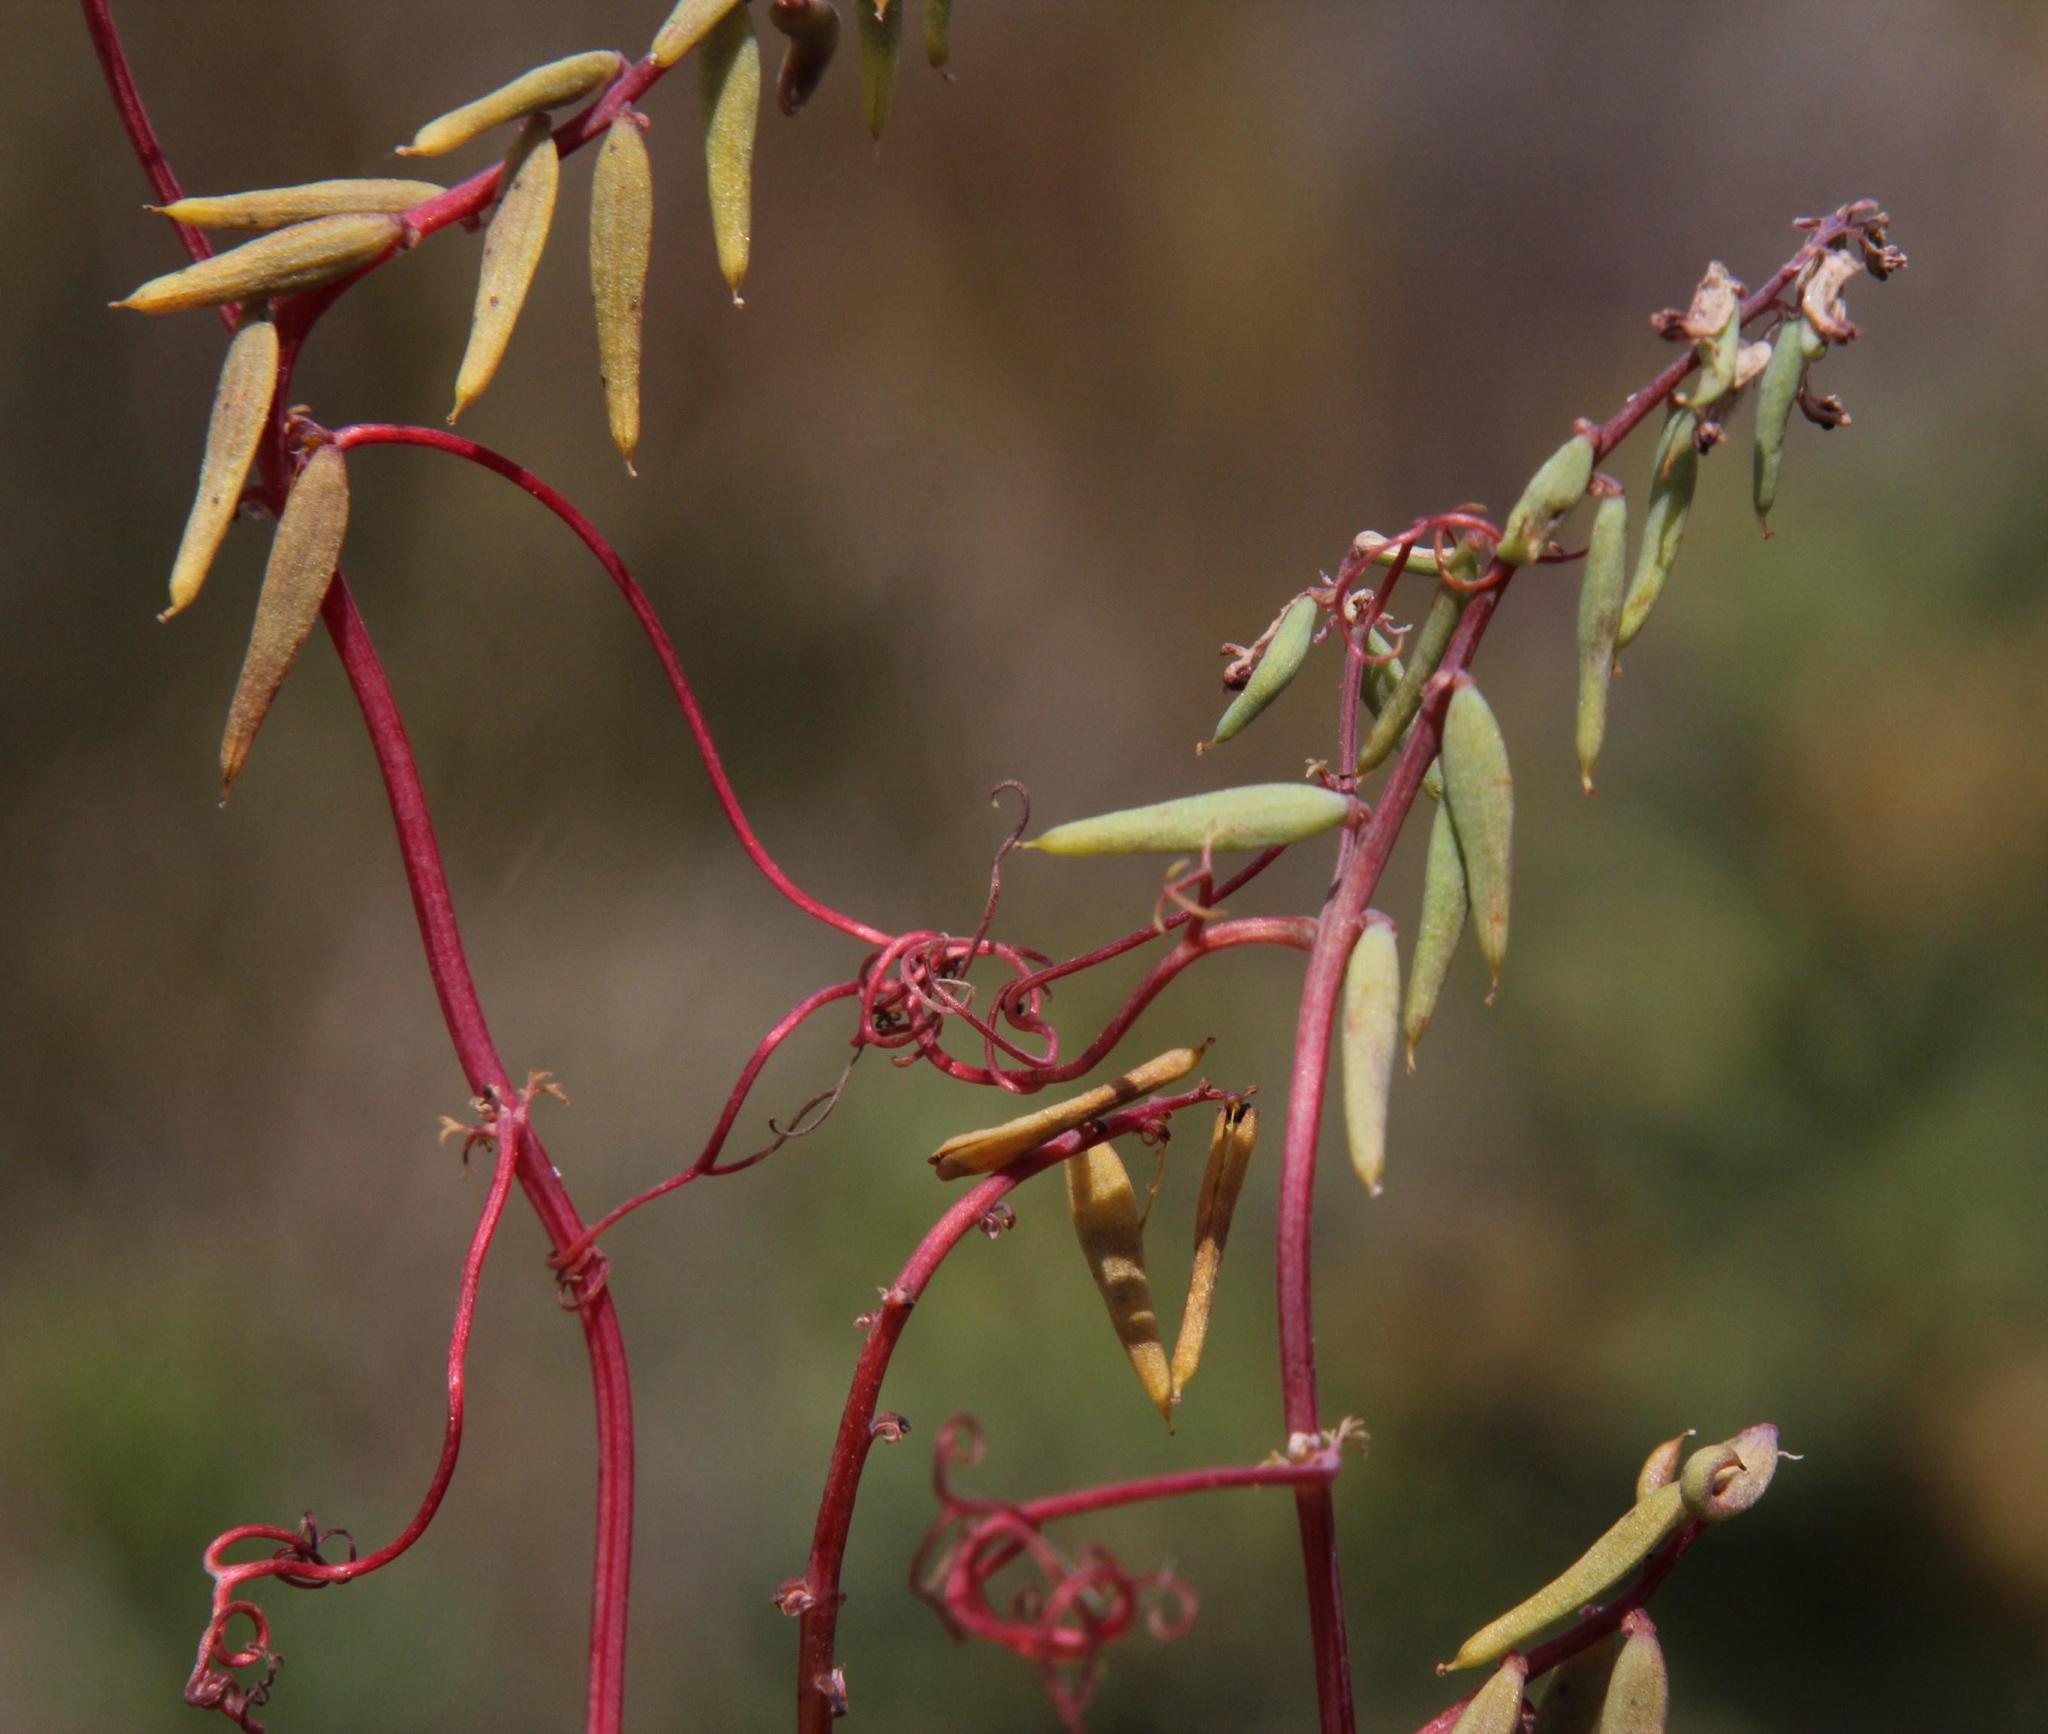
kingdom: Plantae
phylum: Tracheophyta
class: Magnoliopsida
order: Ranunculales
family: Papaveraceae
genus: Cysticapnos
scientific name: Cysticapnos cracca
